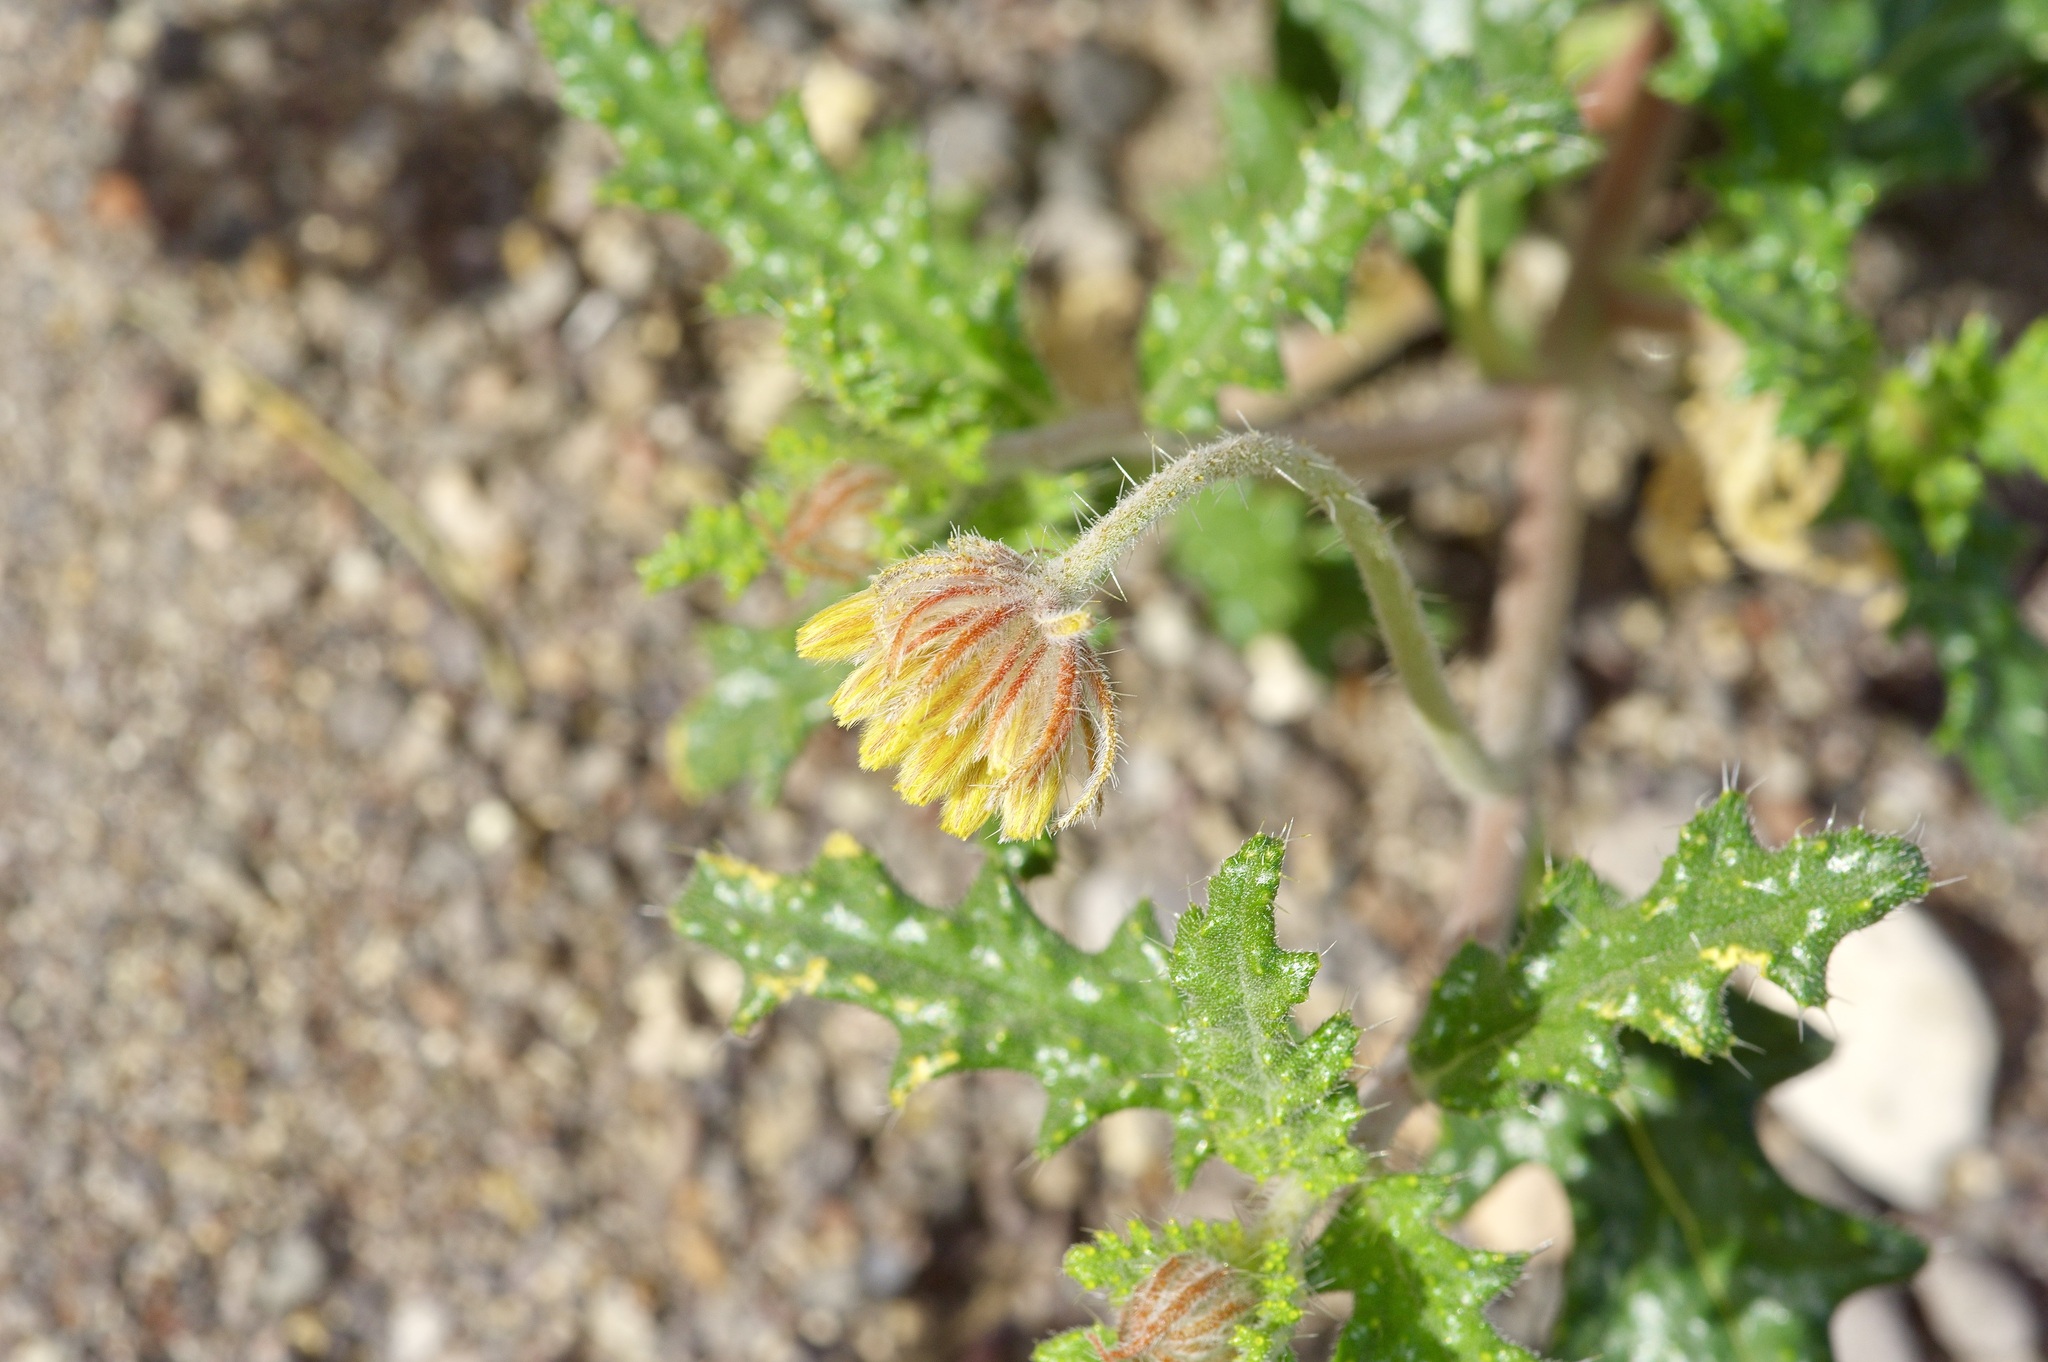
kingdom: Plantae
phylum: Tracheophyta
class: Magnoliopsida
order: Cornales
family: Loasaceae
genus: Cevallia
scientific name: Cevallia sinuata
